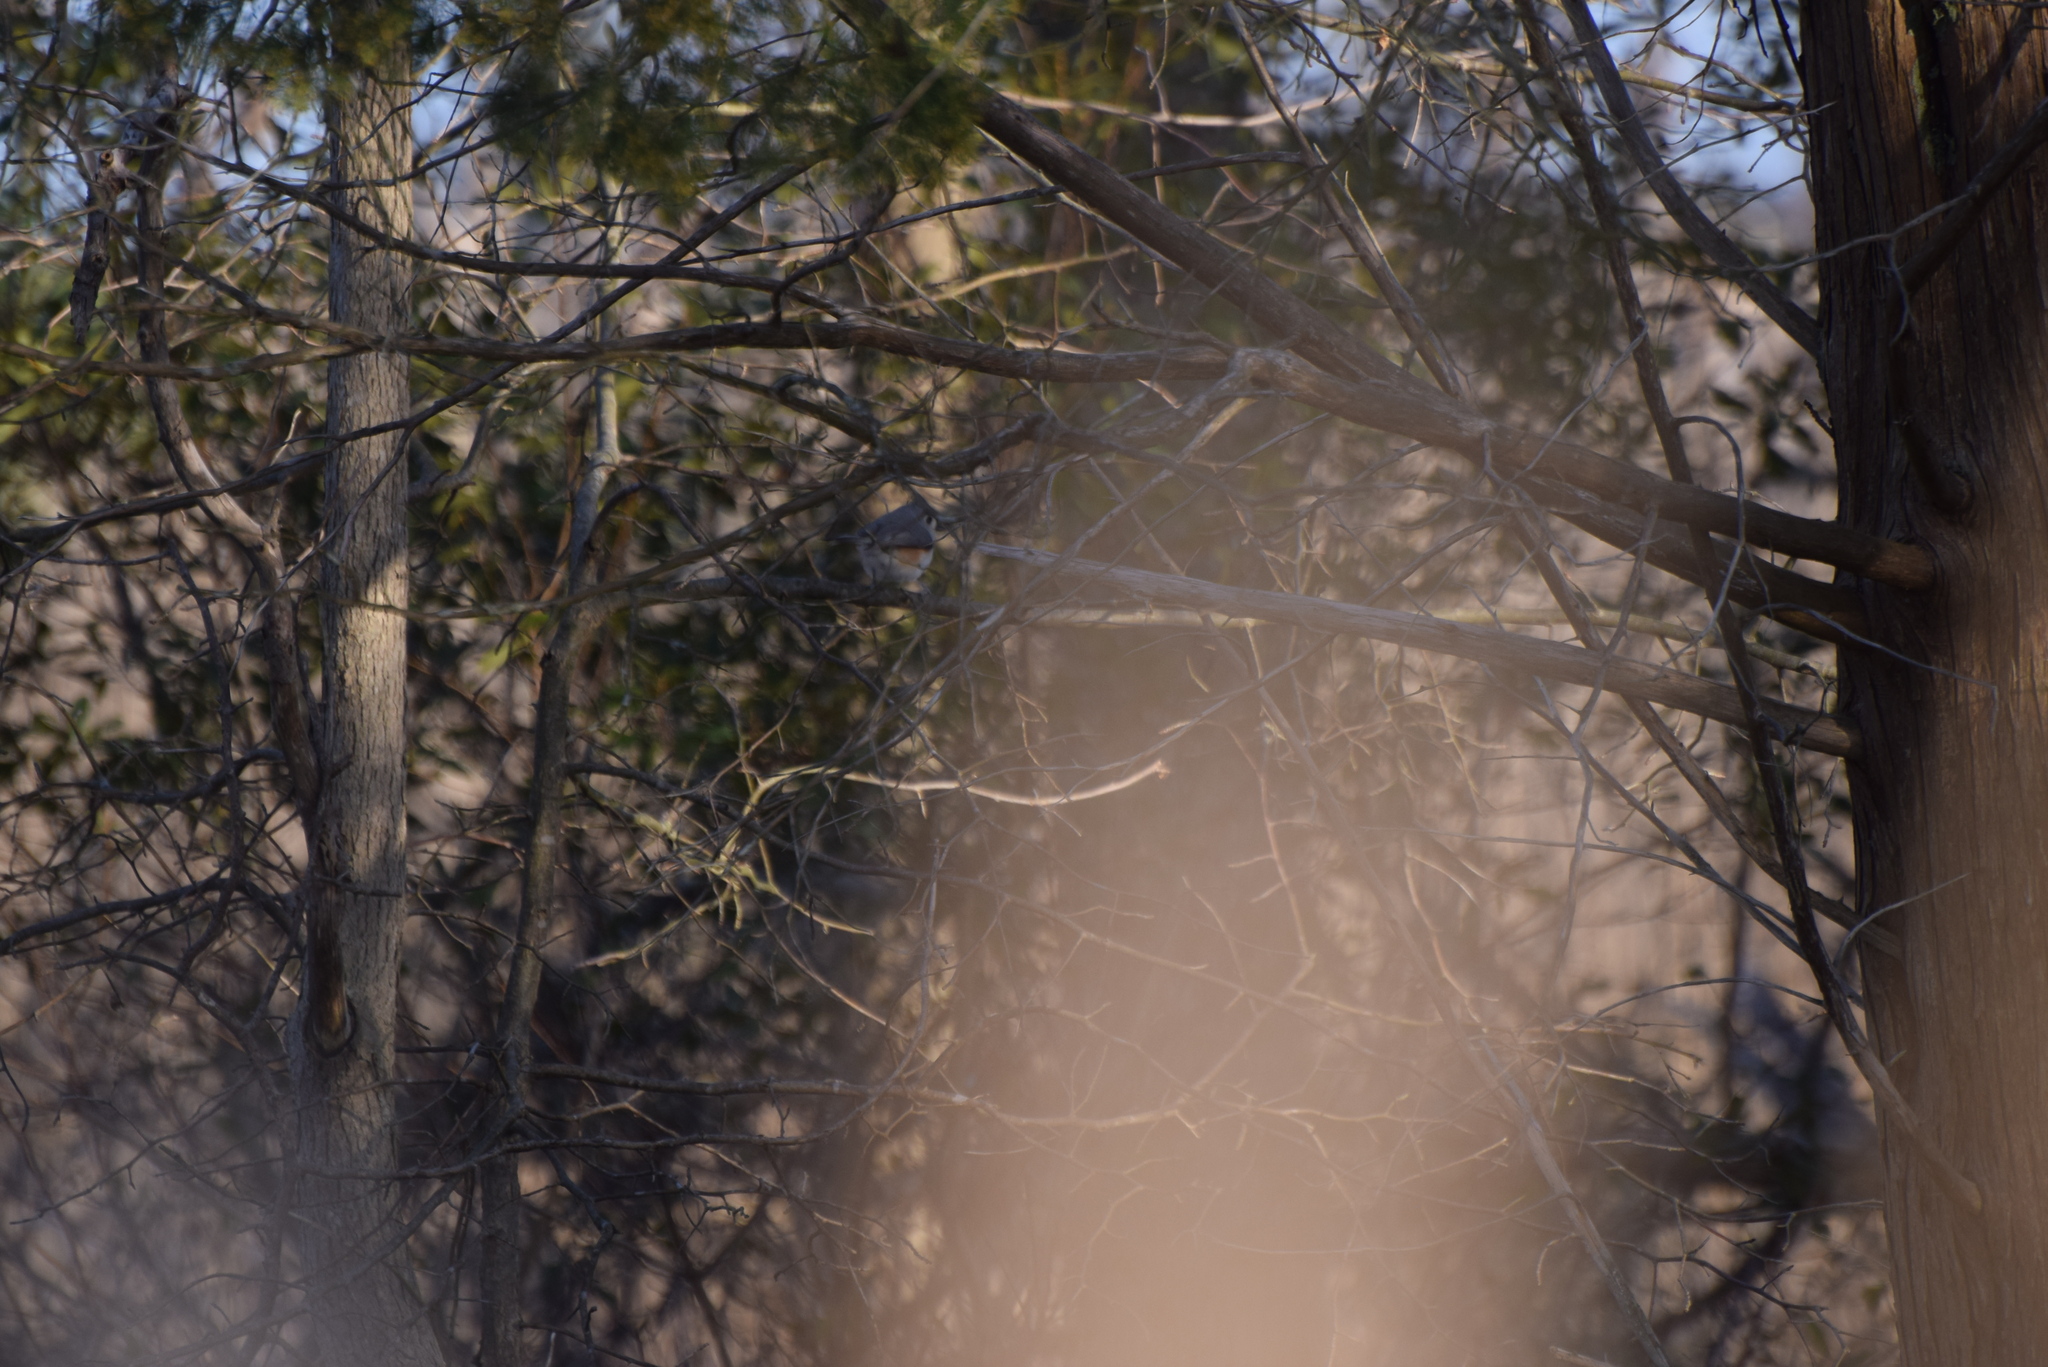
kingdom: Animalia
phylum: Chordata
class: Aves
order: Passeriformes
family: Paridae
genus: Baeolophus
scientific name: Baeolophus bicolor
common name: Tufted titmouse
